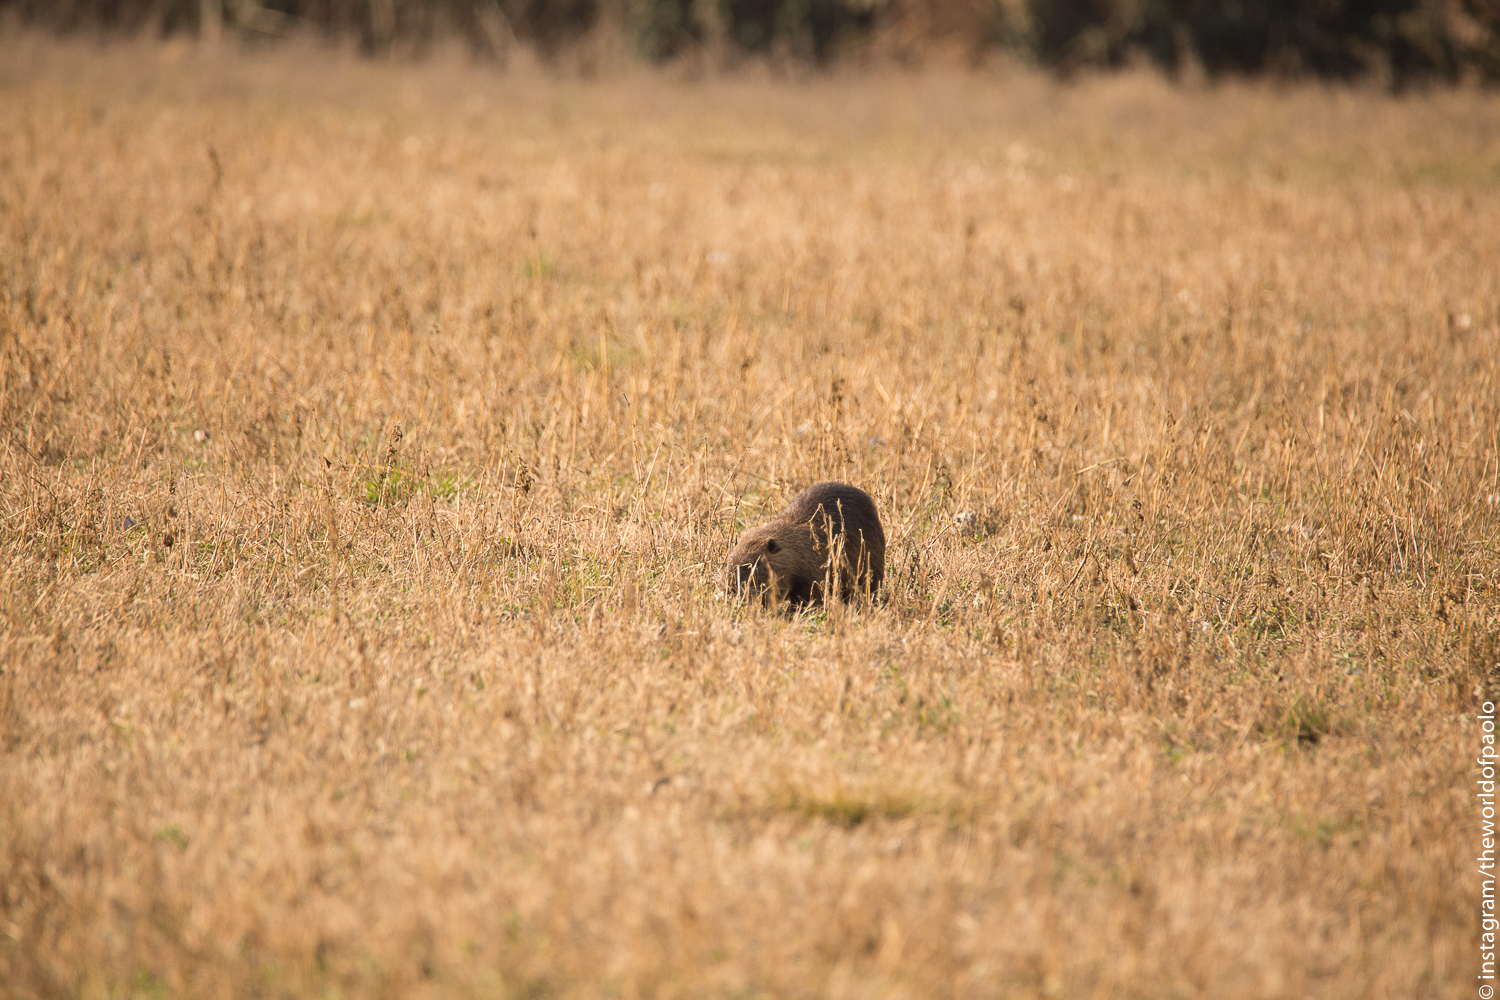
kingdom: Animalia
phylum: Chordata
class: Mammalia
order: Rodentia
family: Myocastoridae
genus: Myocastor
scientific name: Myocastor coypus
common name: Coypu
